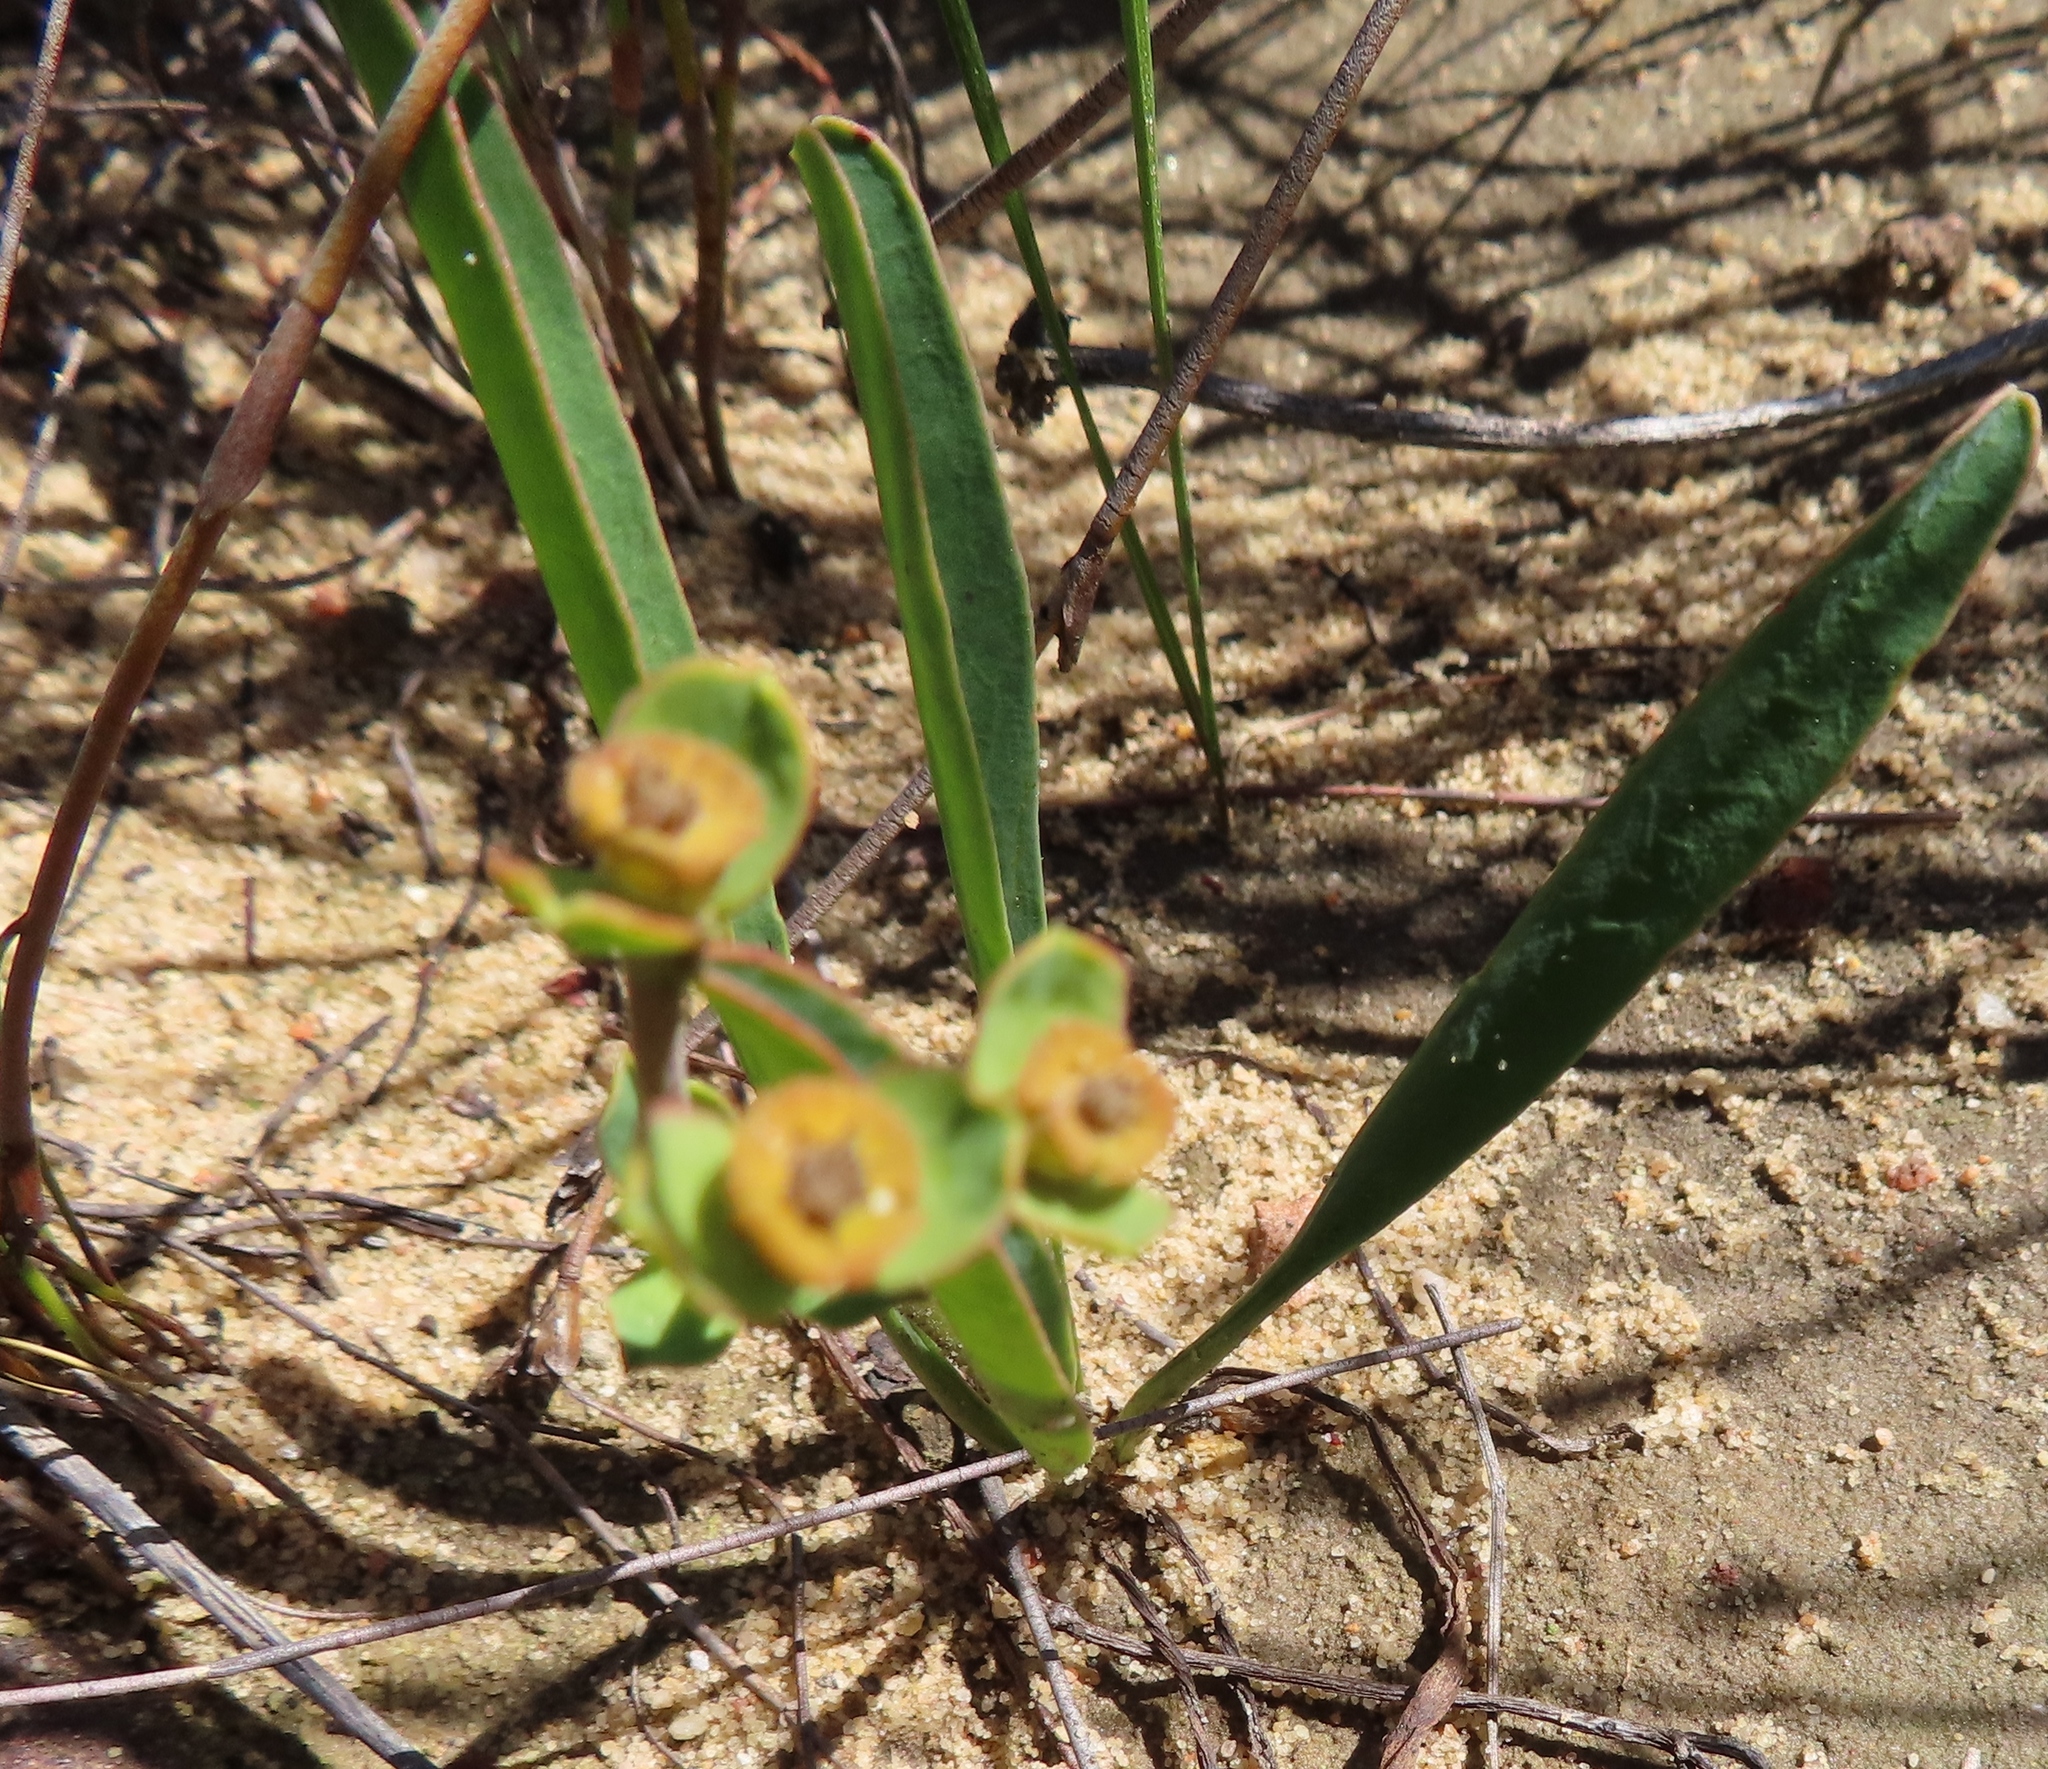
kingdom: Plantae
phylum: Tracheophyta
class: Magnoliopsida
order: Malpighiales
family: Euphorbiaceae
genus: Euphorbia
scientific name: Euphorbia silenifolia
